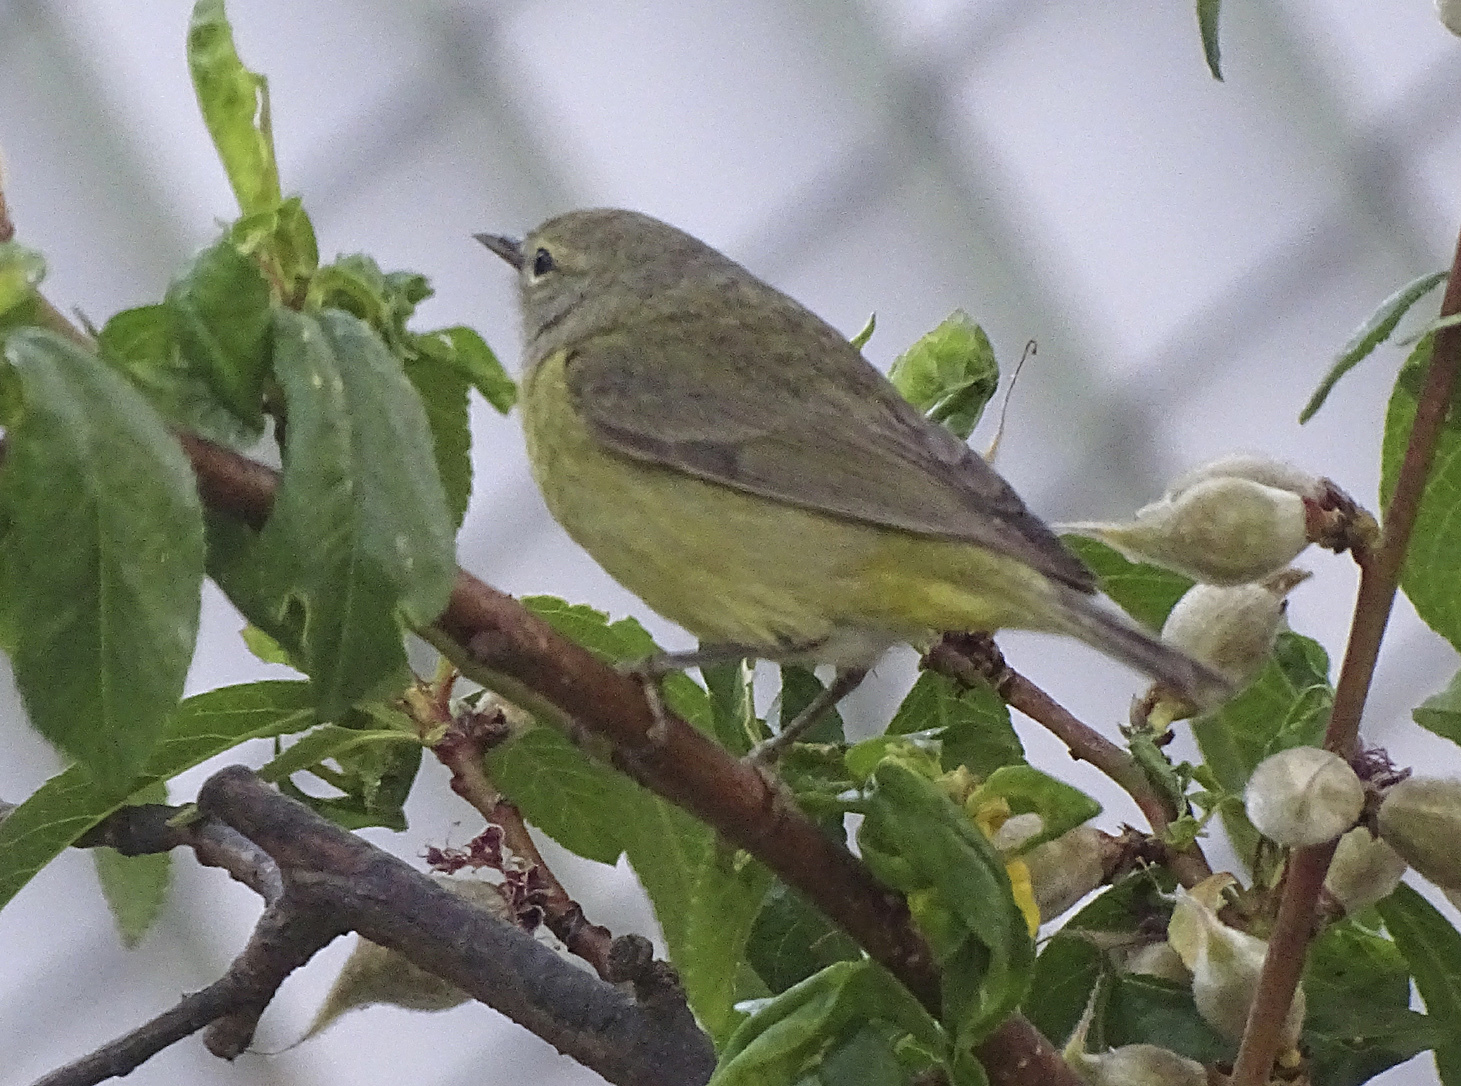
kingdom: Animalia
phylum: Chordata
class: Aves
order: Passeriformes
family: Parulidae
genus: Leiothlypis
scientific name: Leiothlypis celata
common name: Orange-crowned warbler
